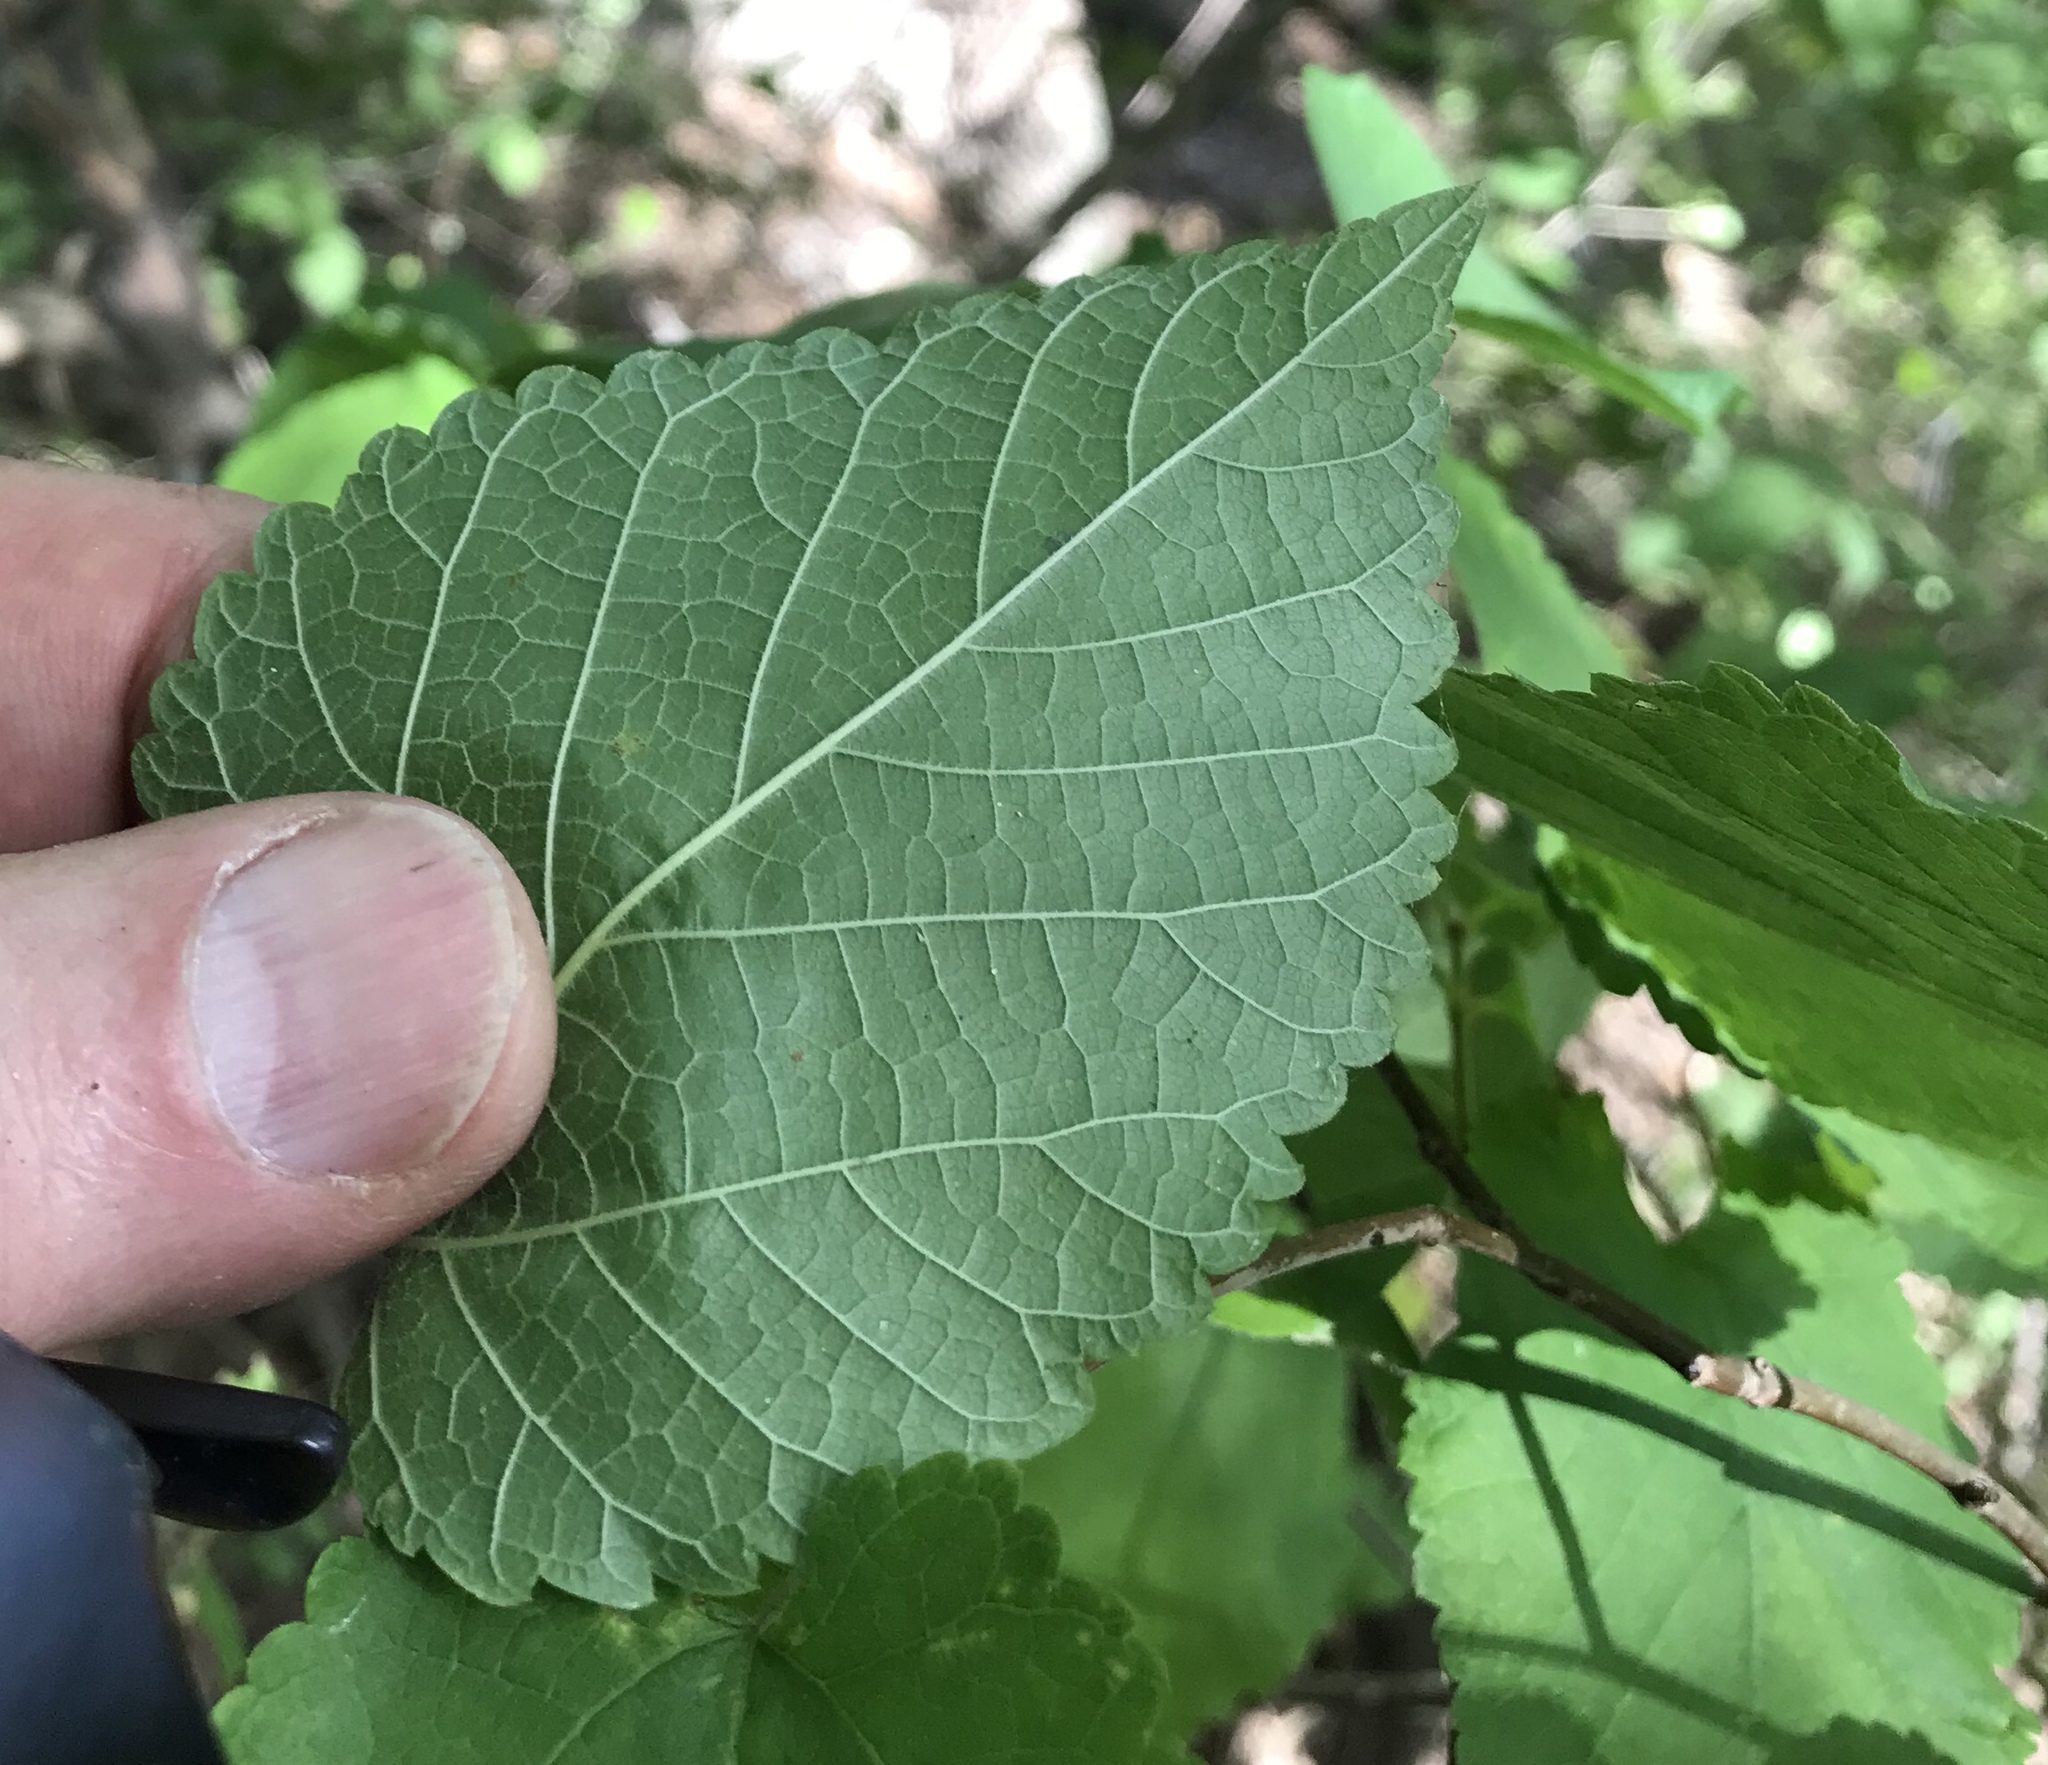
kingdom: Plantae
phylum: Tracheophyta
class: Magnoliopsida
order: Rosales
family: Moraceae
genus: Morus
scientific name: Morus rubra
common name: Red mulberry
